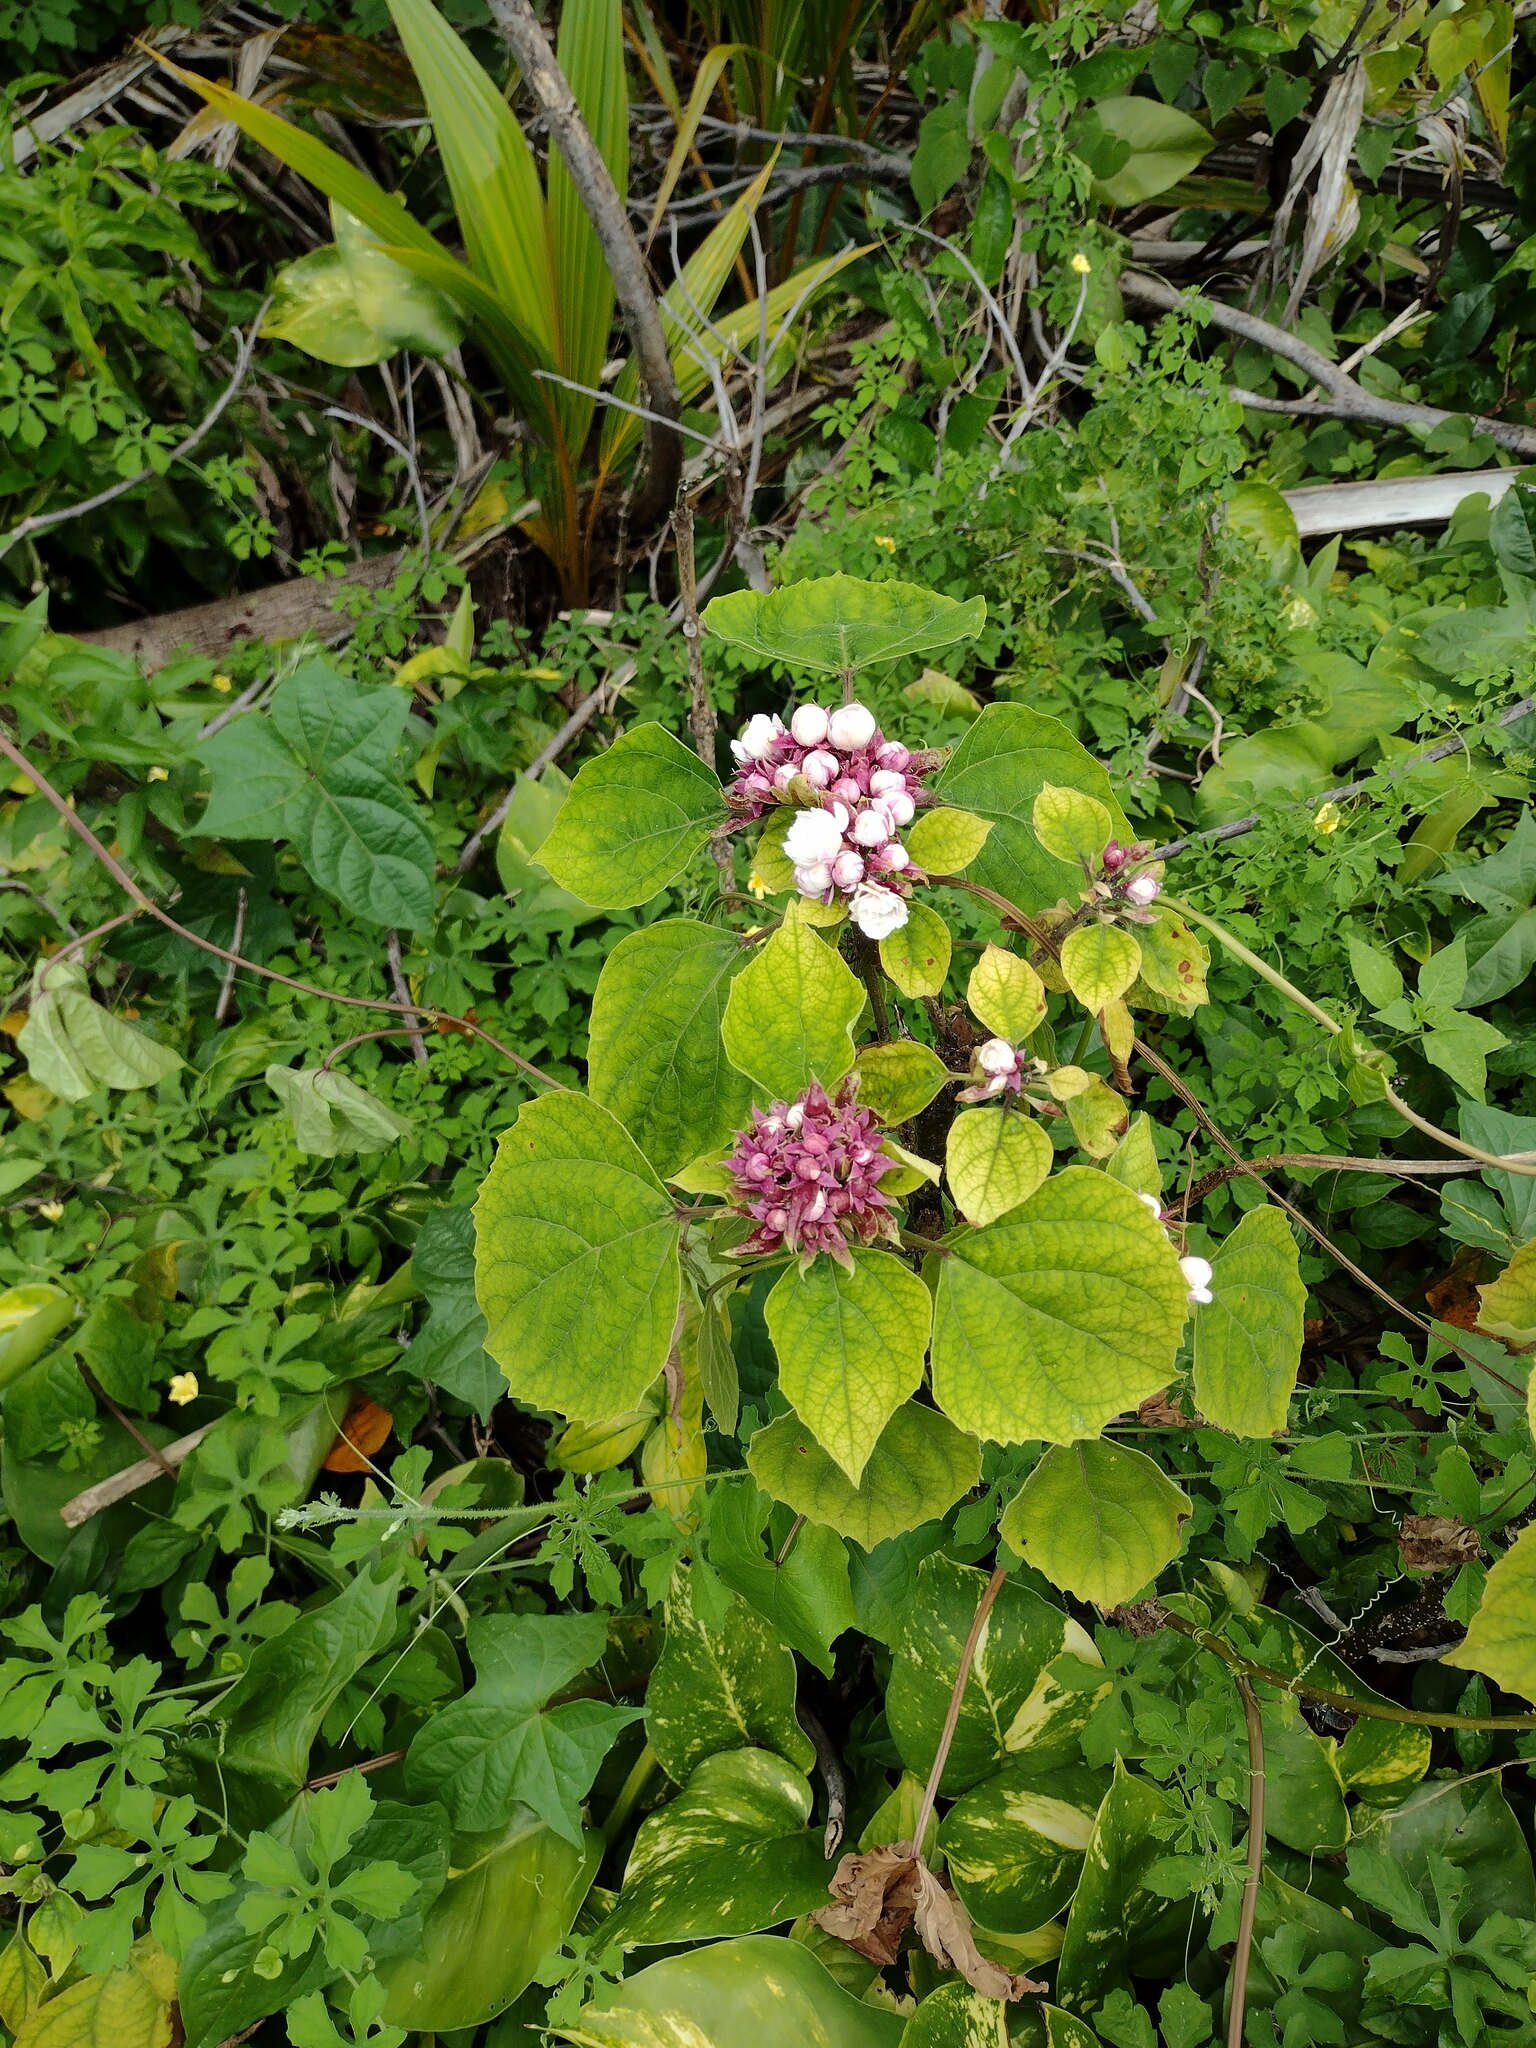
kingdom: Plantae
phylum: Tracheophyta
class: Magnoliopsida
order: Lamiales
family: Lamiaceae
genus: Clerodendrum
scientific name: Clerodendrum chinense
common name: Stickbush
